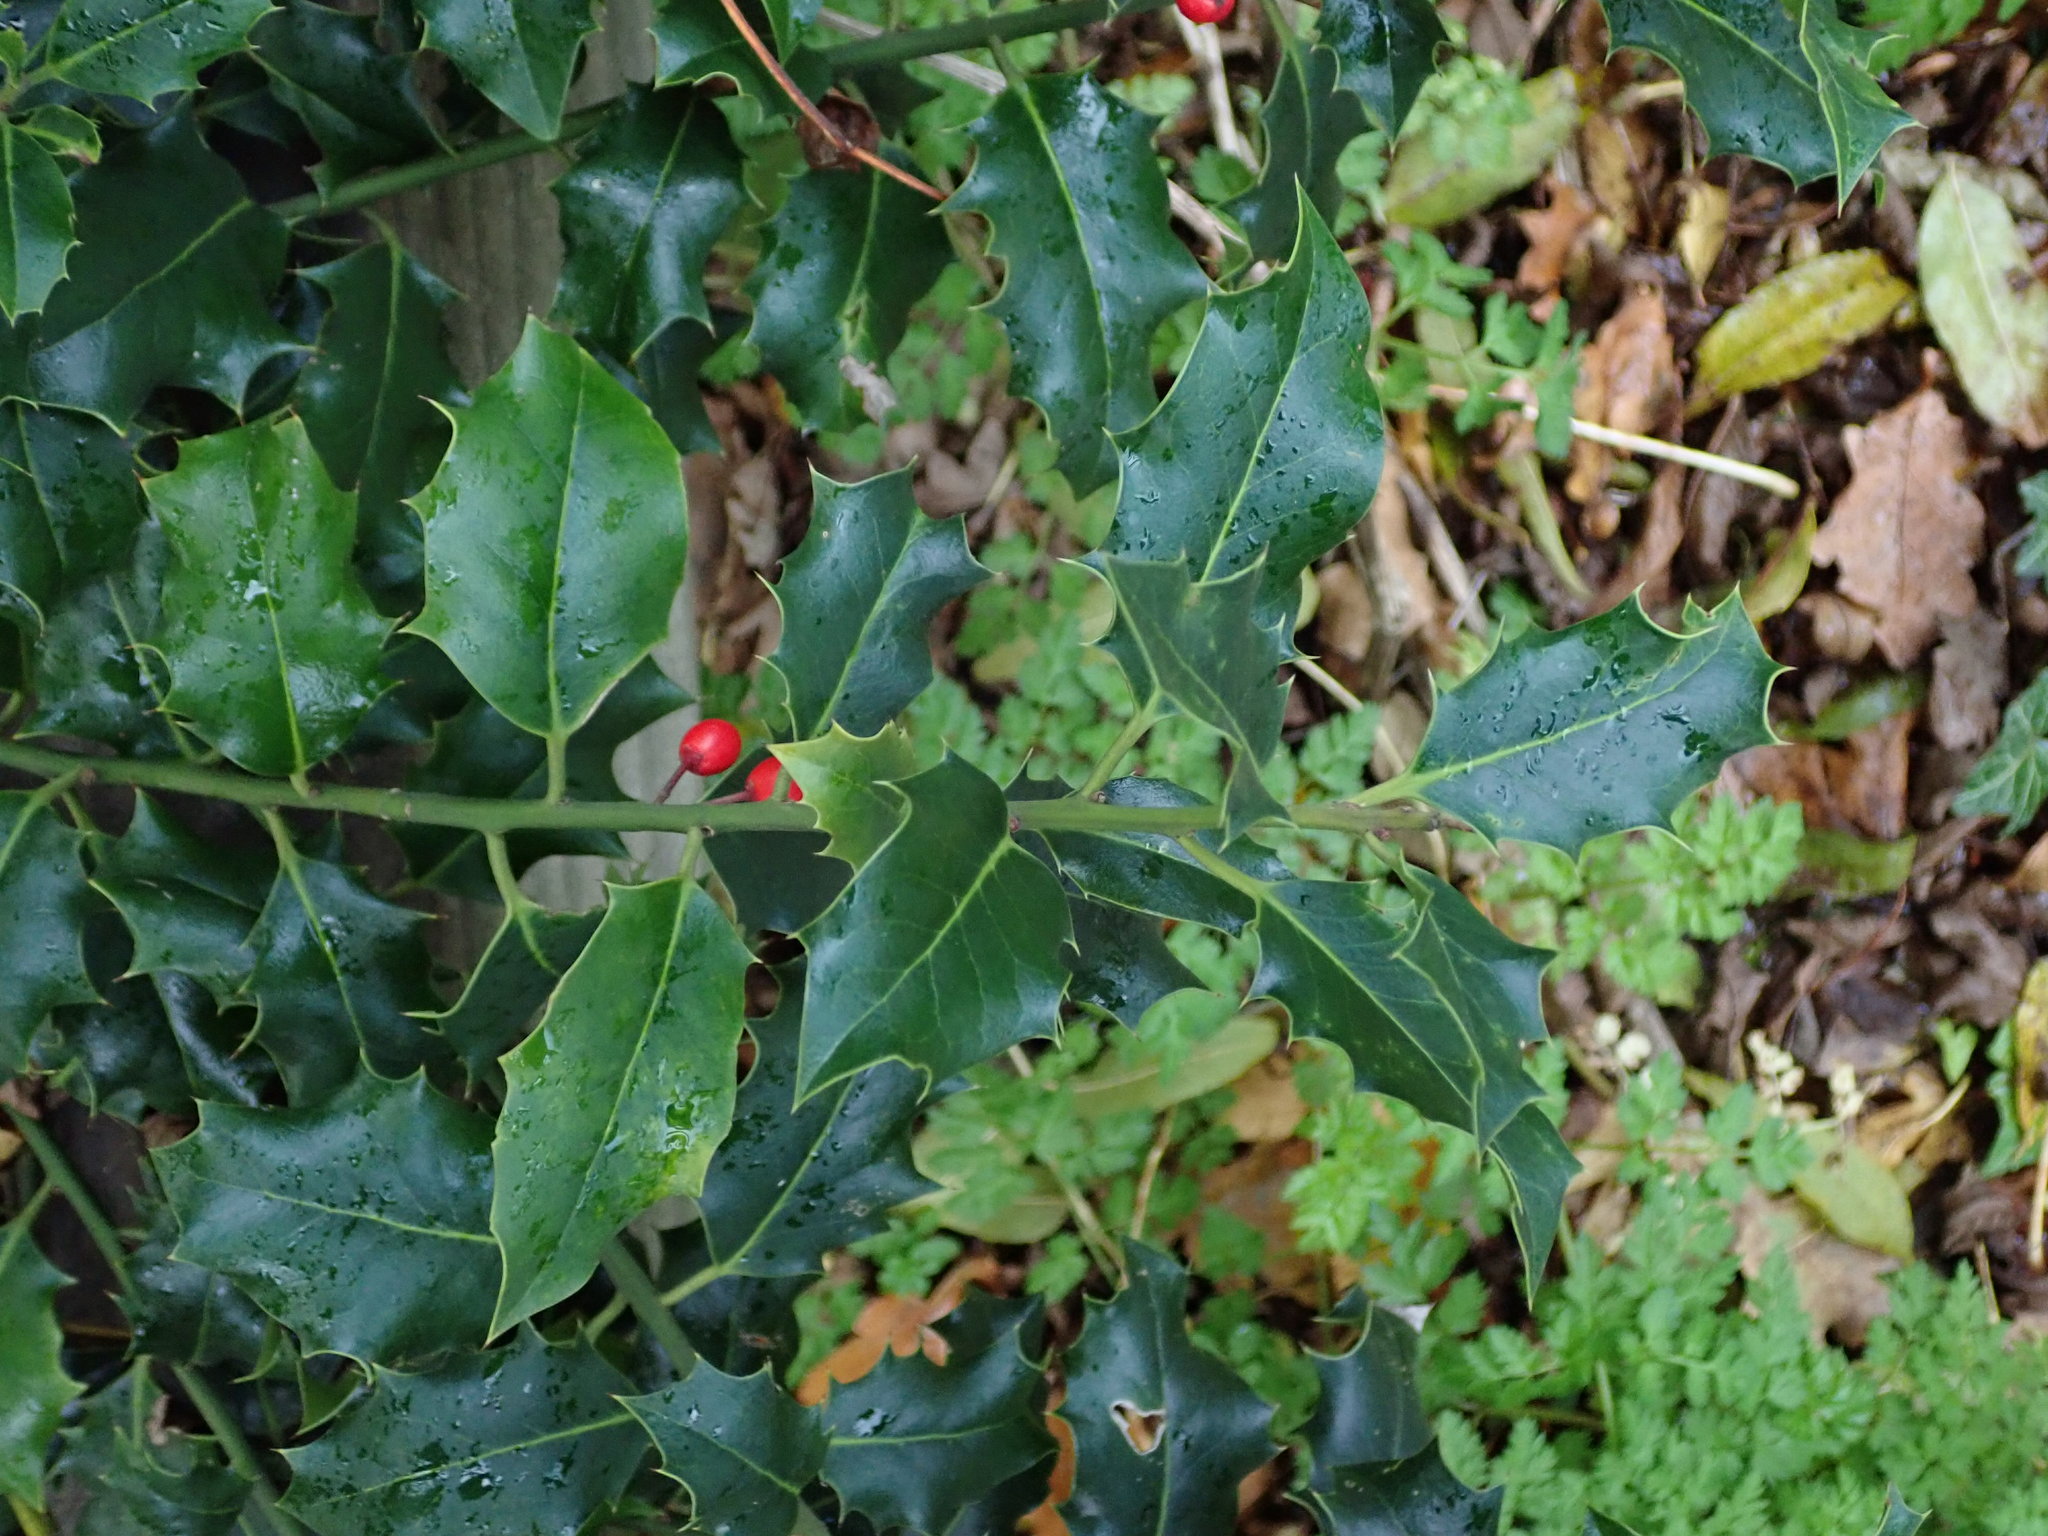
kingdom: Plantae
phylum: Tracheophyta
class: Magnoliopsida
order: Aquifoliales
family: Aquifoliaceae
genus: Ilex
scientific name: Ilex aquifolium
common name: English holly
